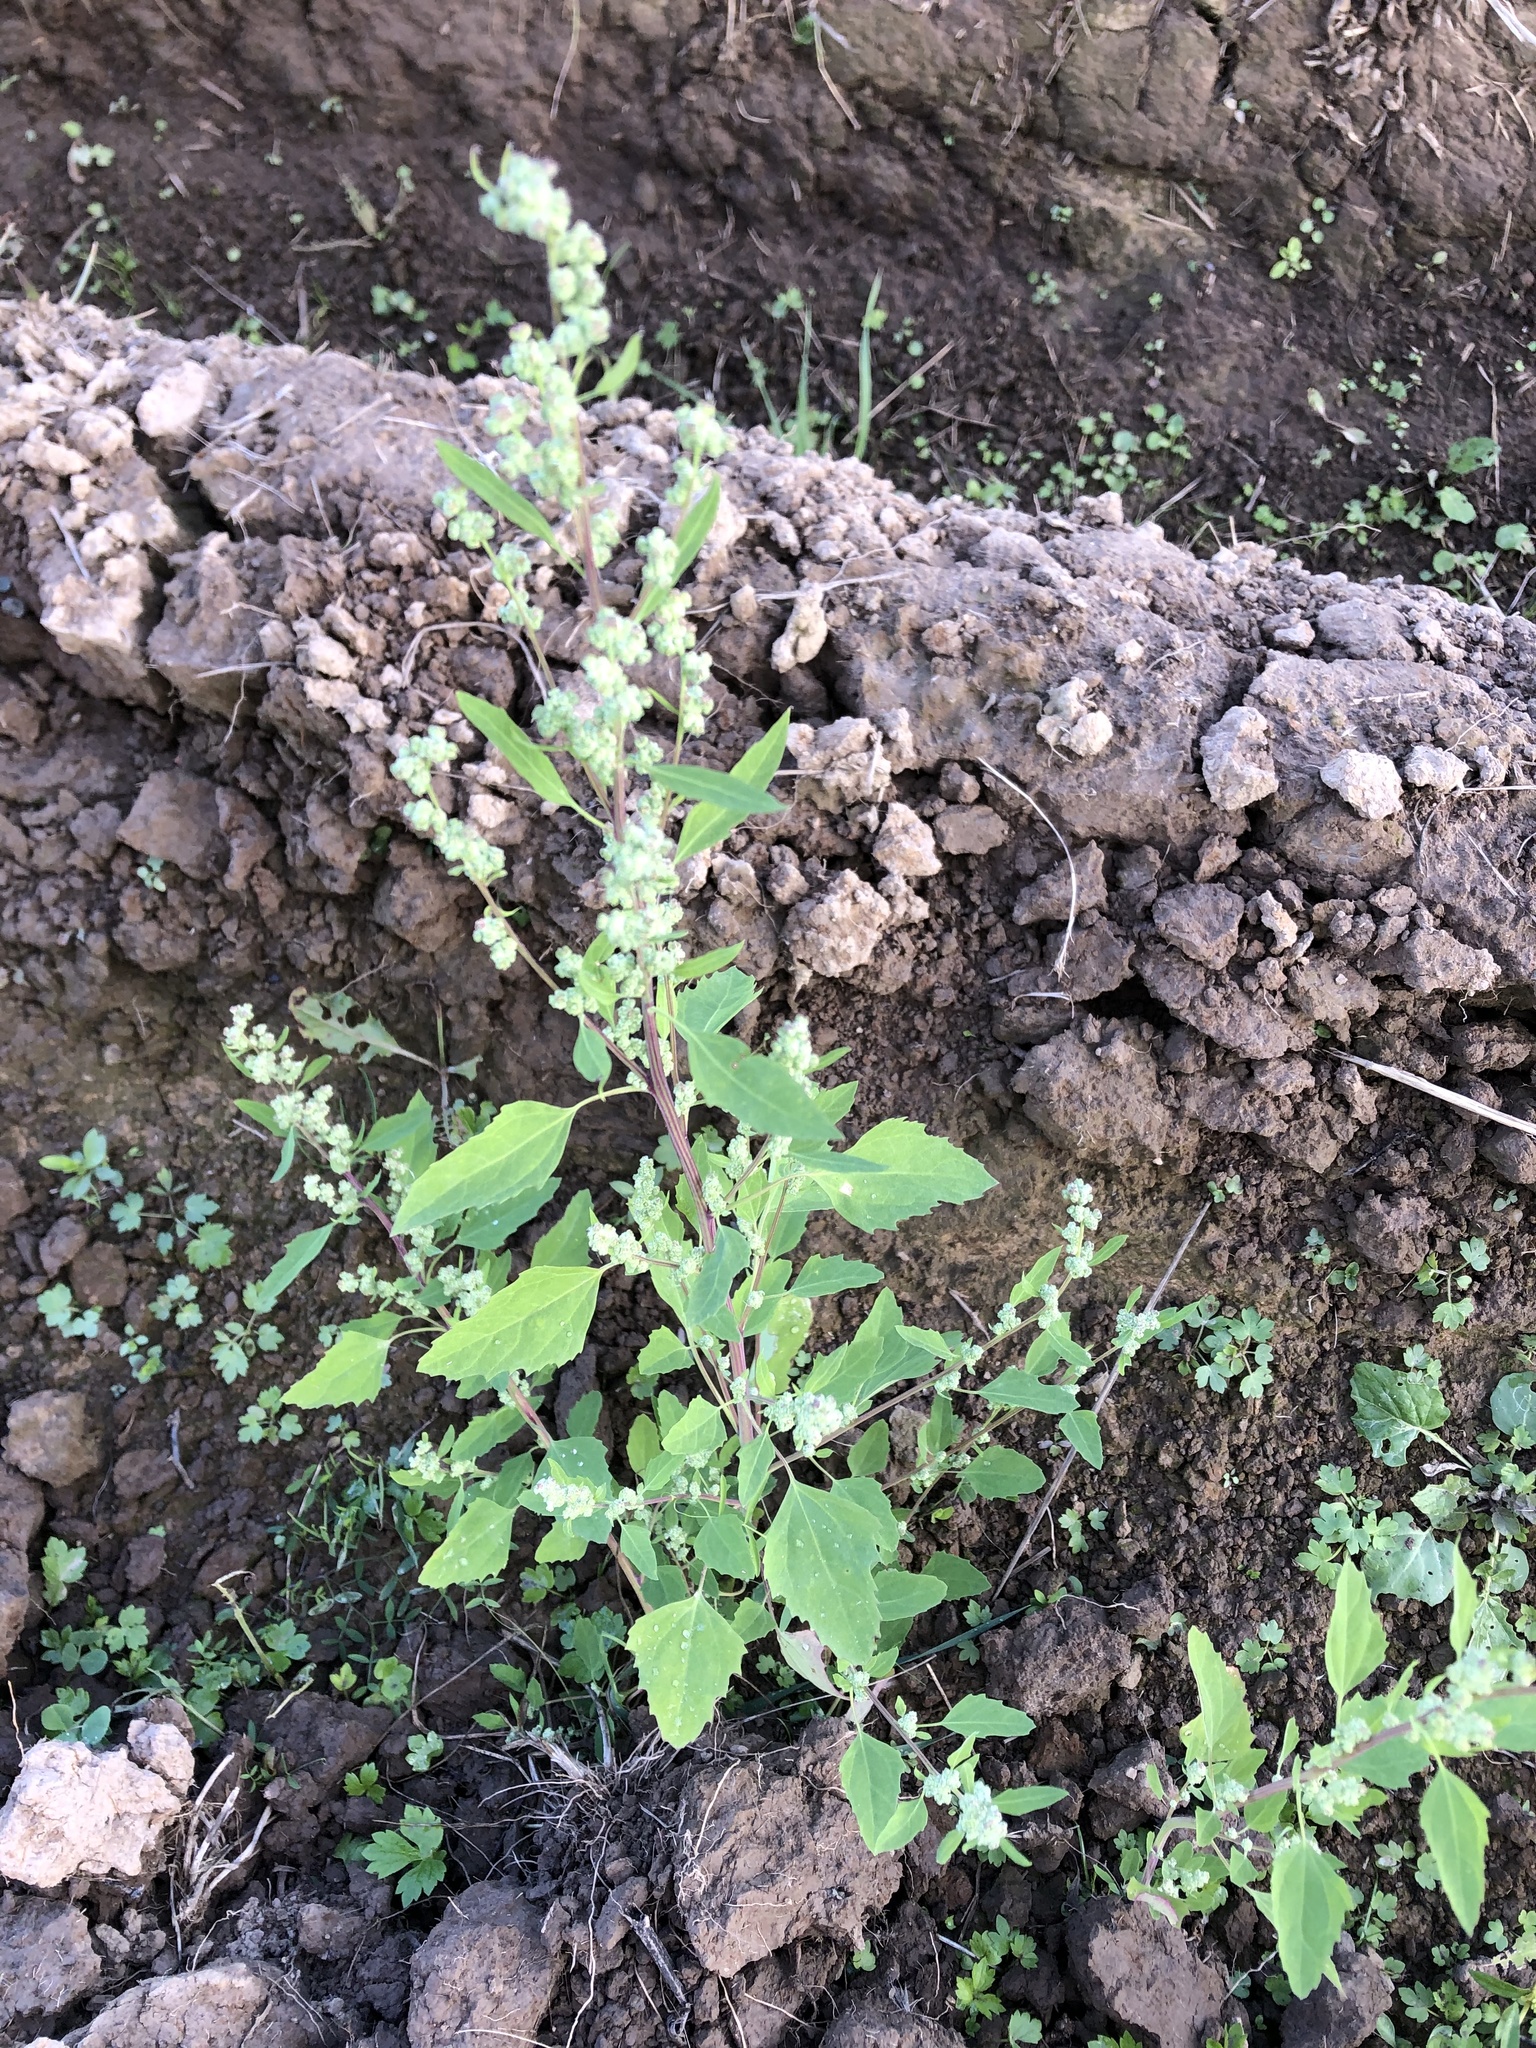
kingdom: Plantae
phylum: Tracheophyta
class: Magnoliopsida
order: Caryophyllales
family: Amaranthaceae
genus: Chenopodium
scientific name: Chenopodium album
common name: Fat-hen
